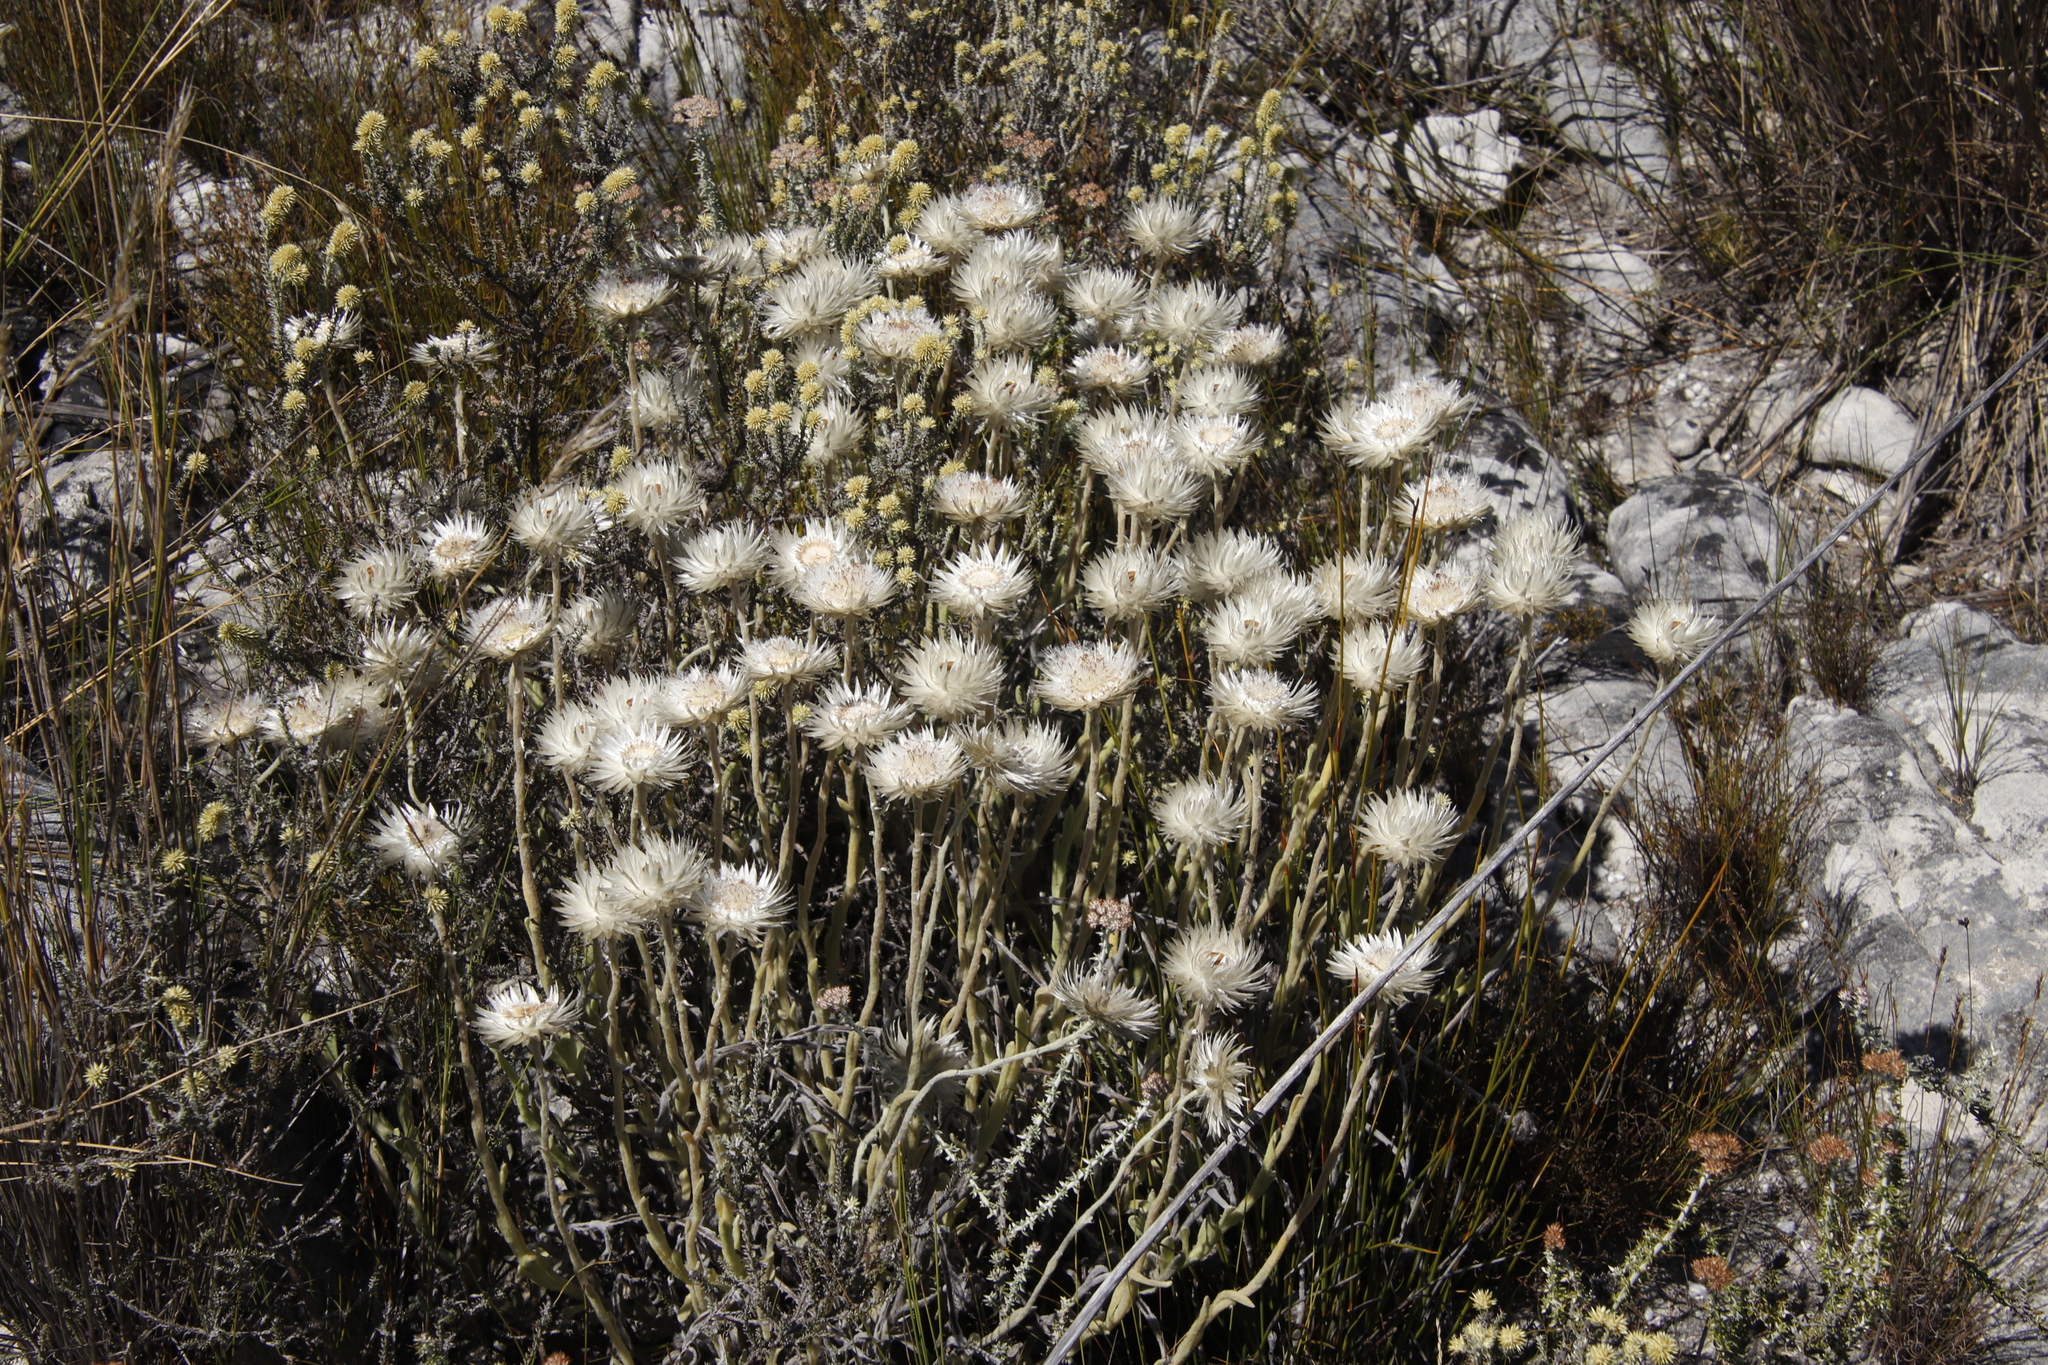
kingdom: Plantae
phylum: Tracheophyta
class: Magnoliopsida
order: Asterales
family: Asteraceae
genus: Syncarpha
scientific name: Syncarpha vestita
